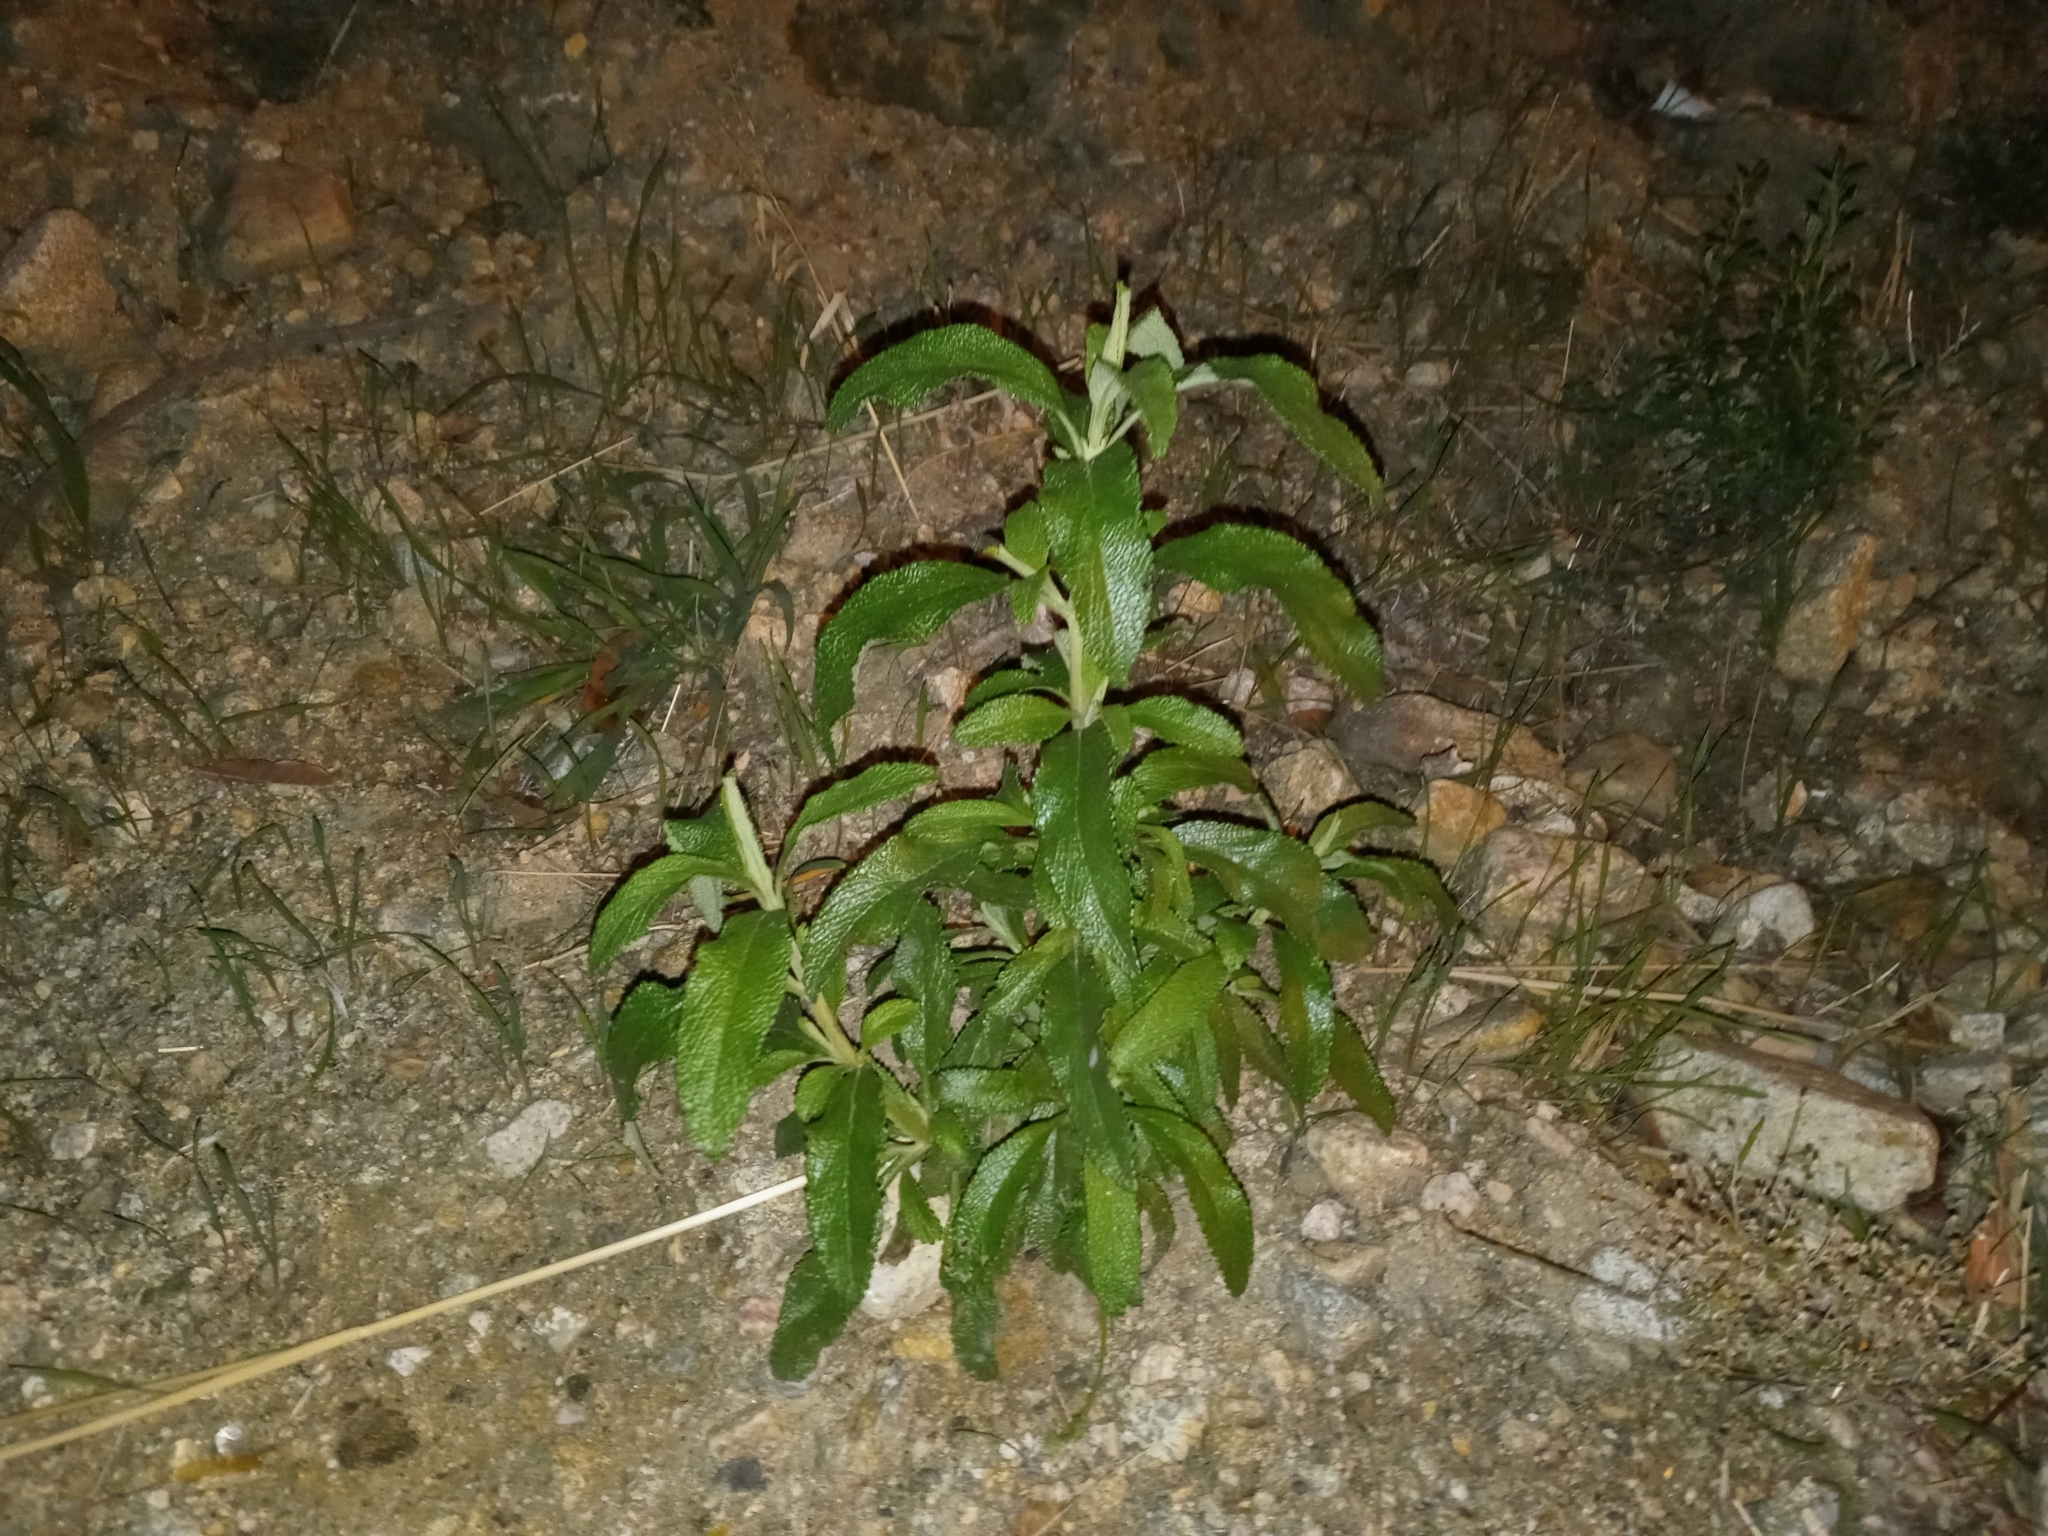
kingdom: Plantae
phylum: Tracheophyta
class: Magnoliopsida
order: Lamiales
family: Lamiaceae
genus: Salvia
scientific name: Salvia mellifera
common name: Black sage
